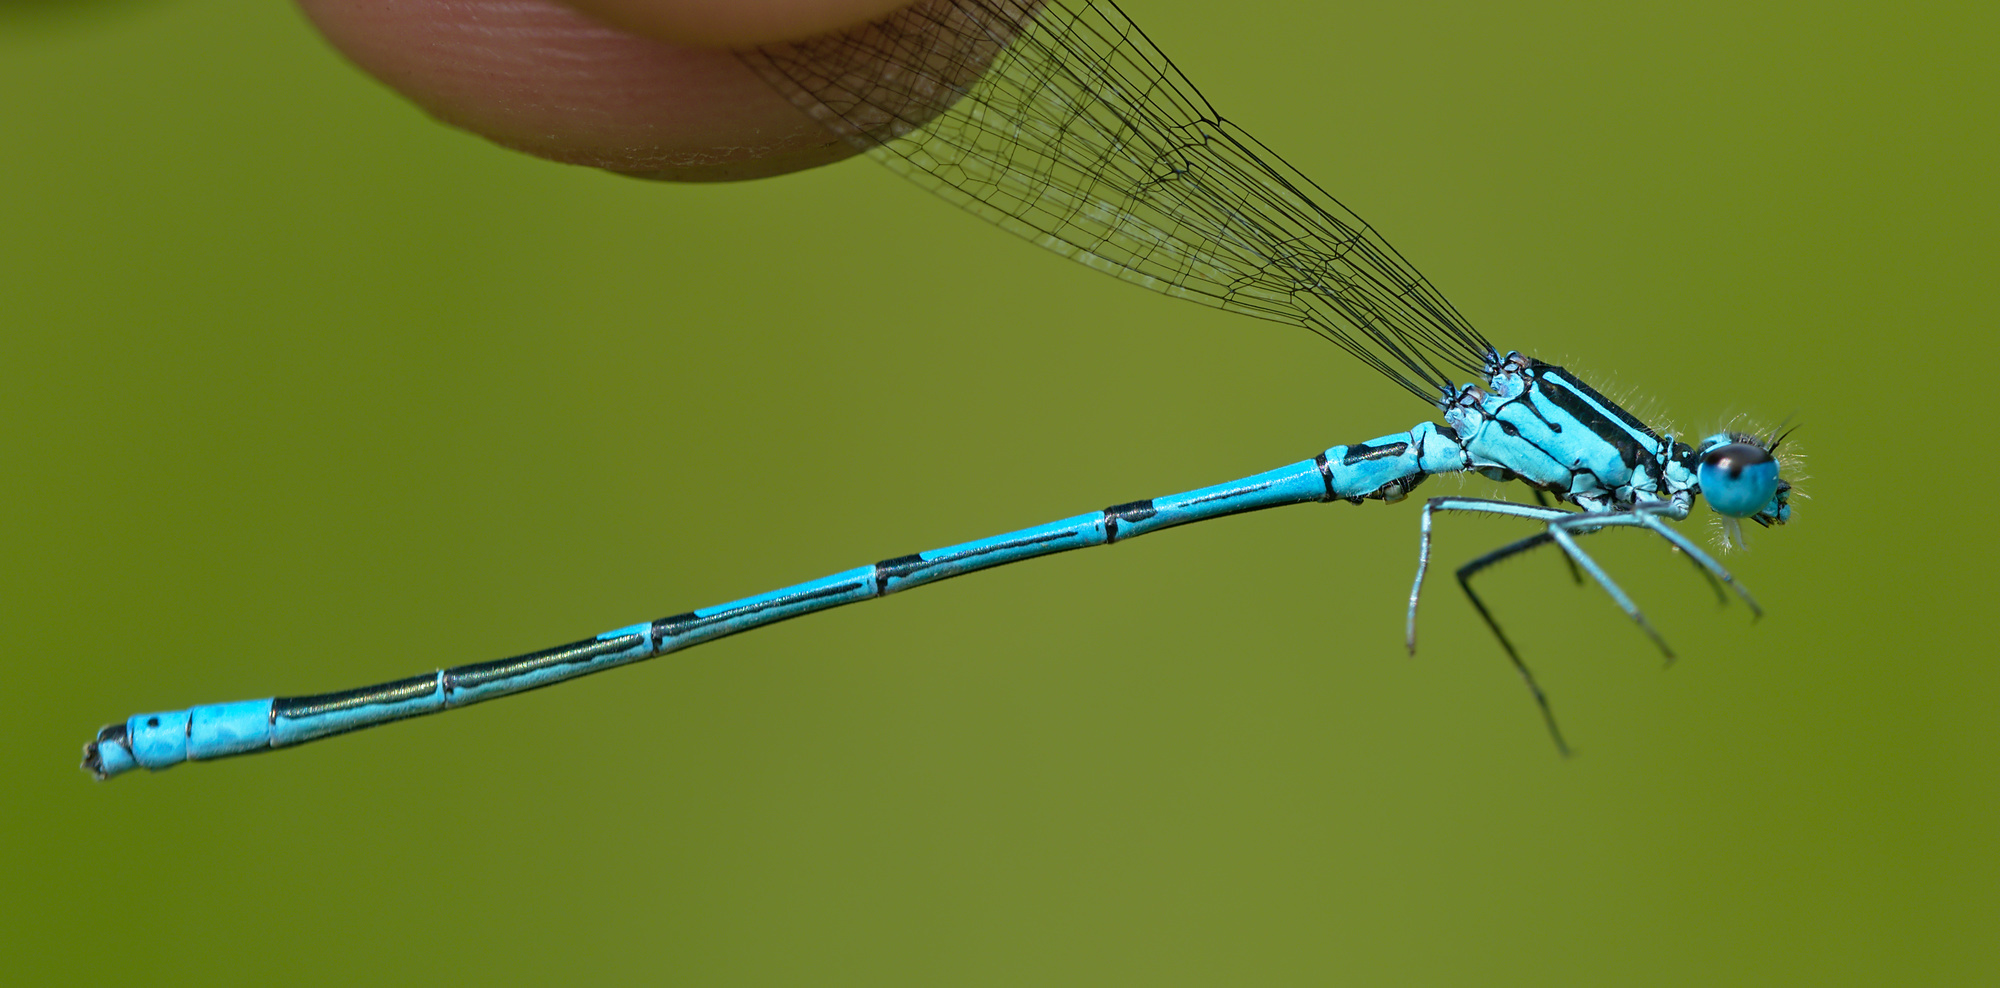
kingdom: Animalia
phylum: Arthropoda
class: Insecta
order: Odonata
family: Coenagrionidae
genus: Coenagrion
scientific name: Coenagrion puella
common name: Azure damselfly
